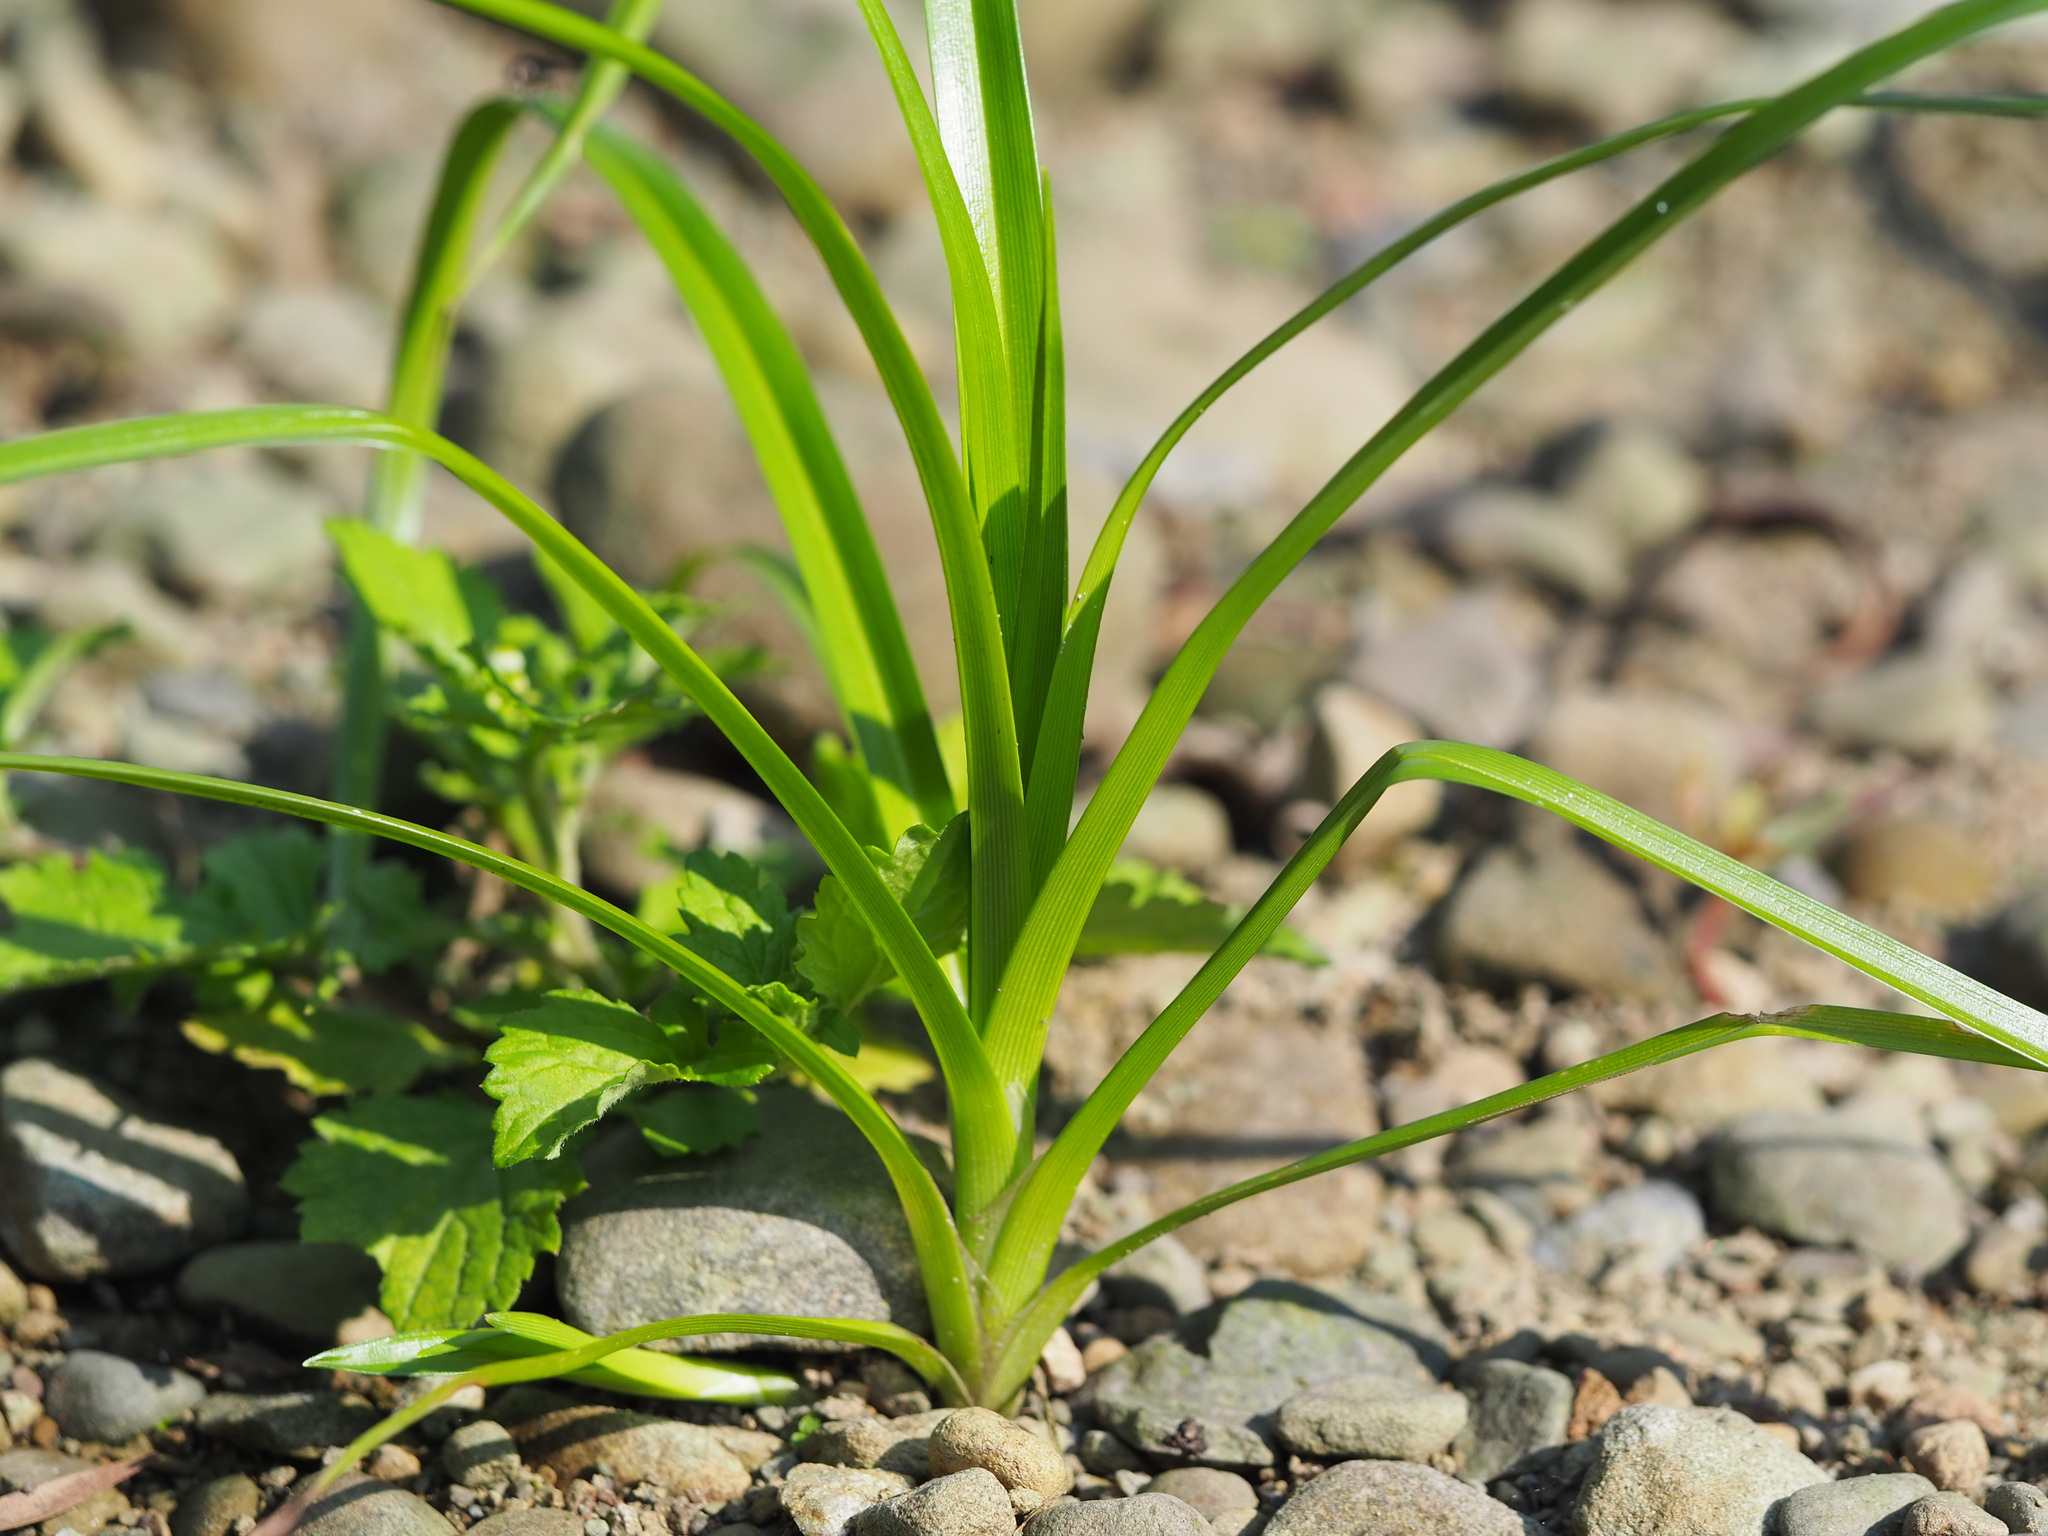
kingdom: Plantae
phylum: Tracheophyta
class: Liliopsida
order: Poales
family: Cyperaceae
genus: Scirpus
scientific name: Scirpus ternatanus
